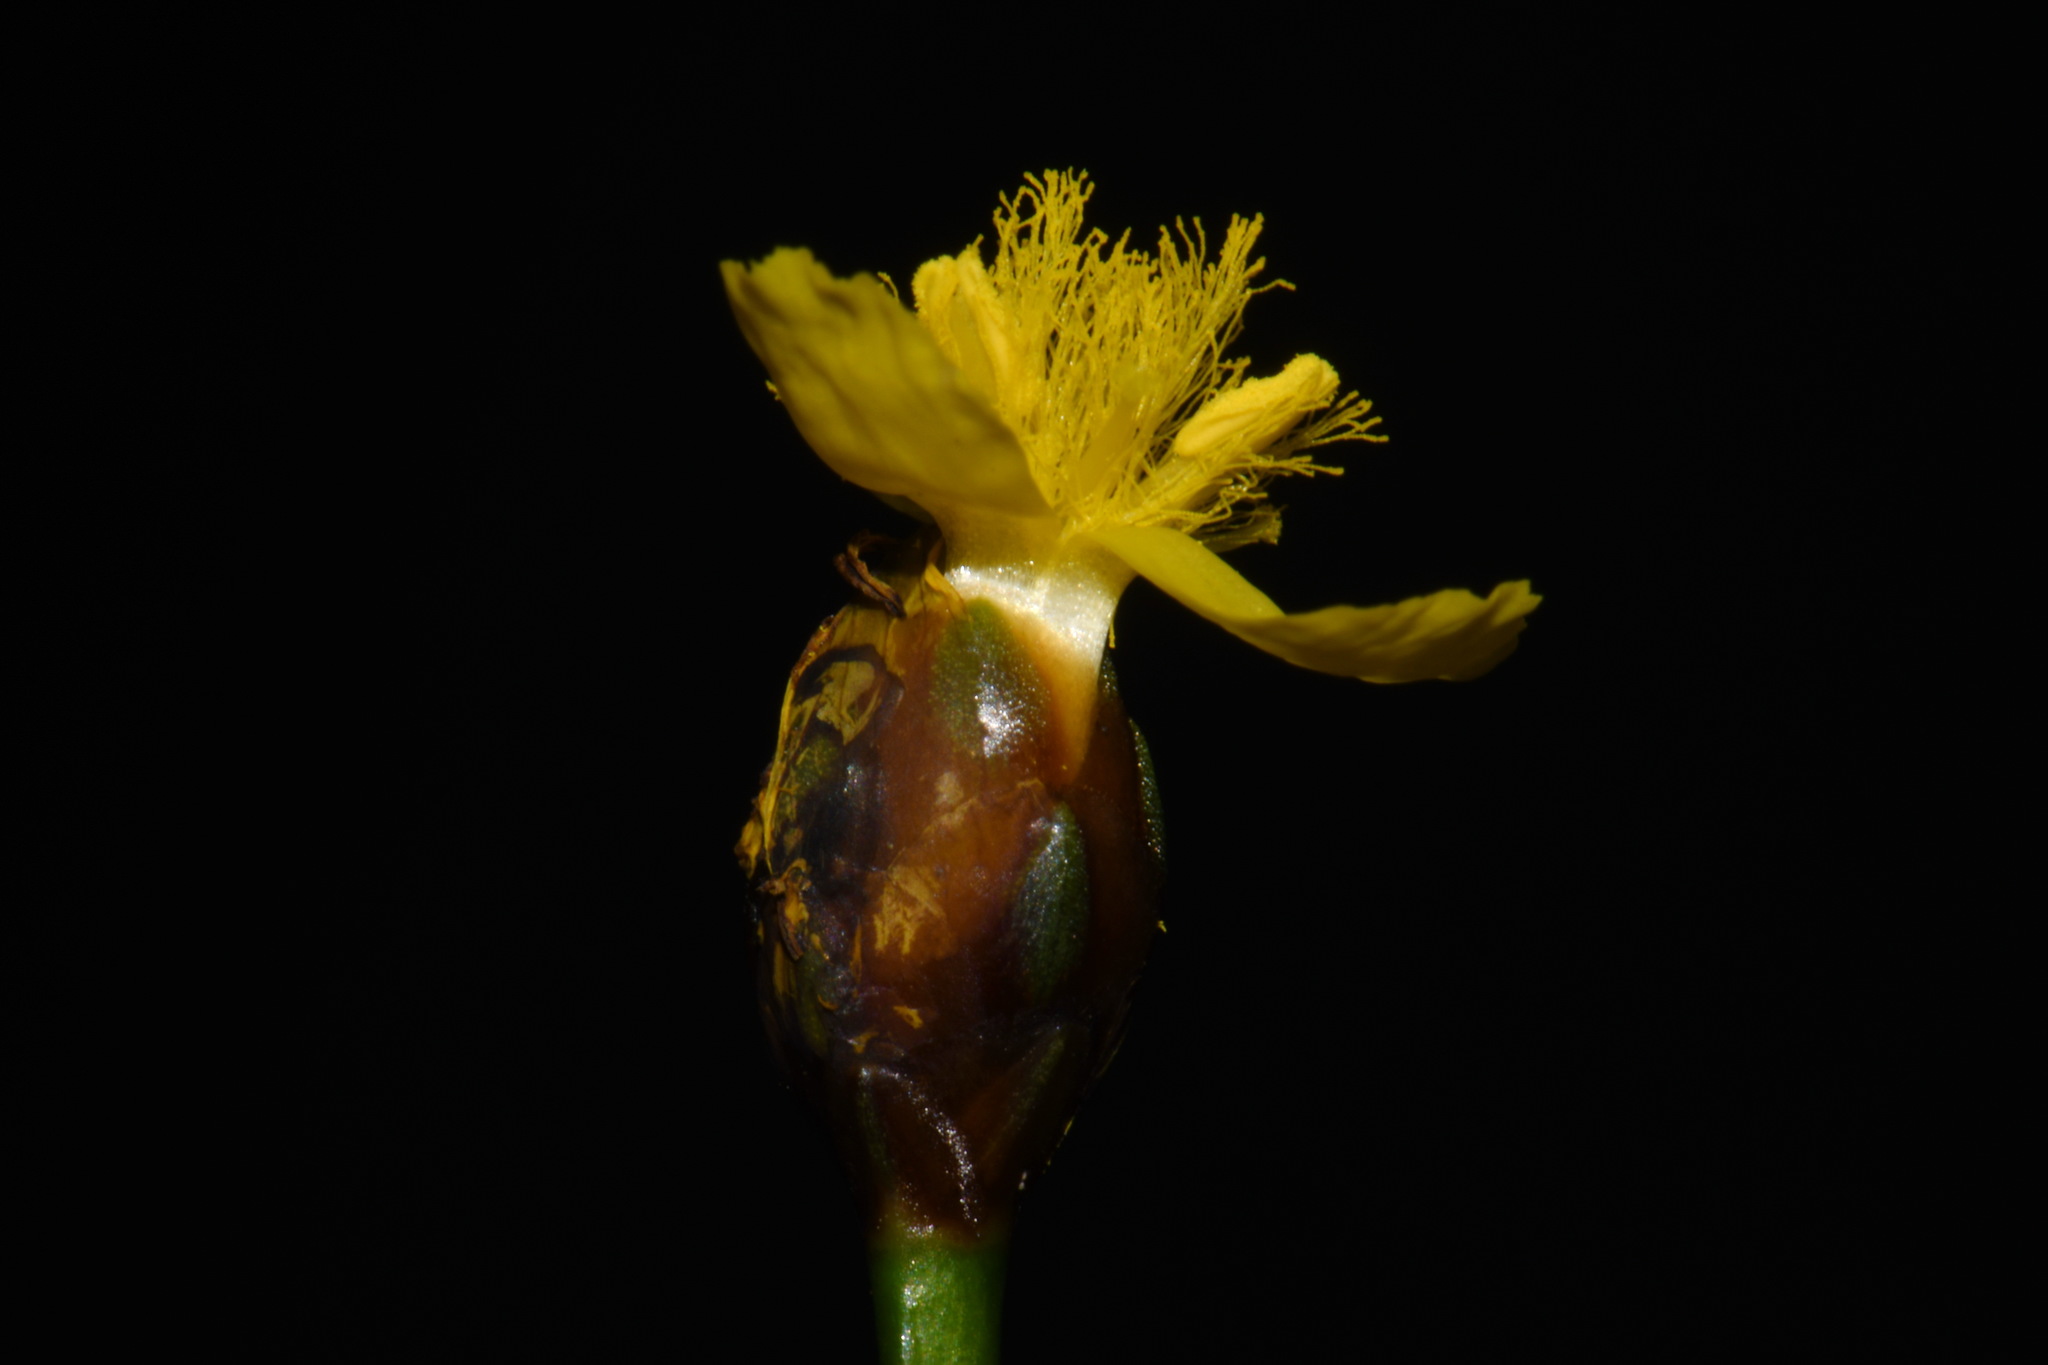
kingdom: Plantae
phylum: Tracheophyta
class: Liliopsida
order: Poales
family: Xyridaceae
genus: Xyris
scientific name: Xyris difformis
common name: Bog yellow-eyed-grass
